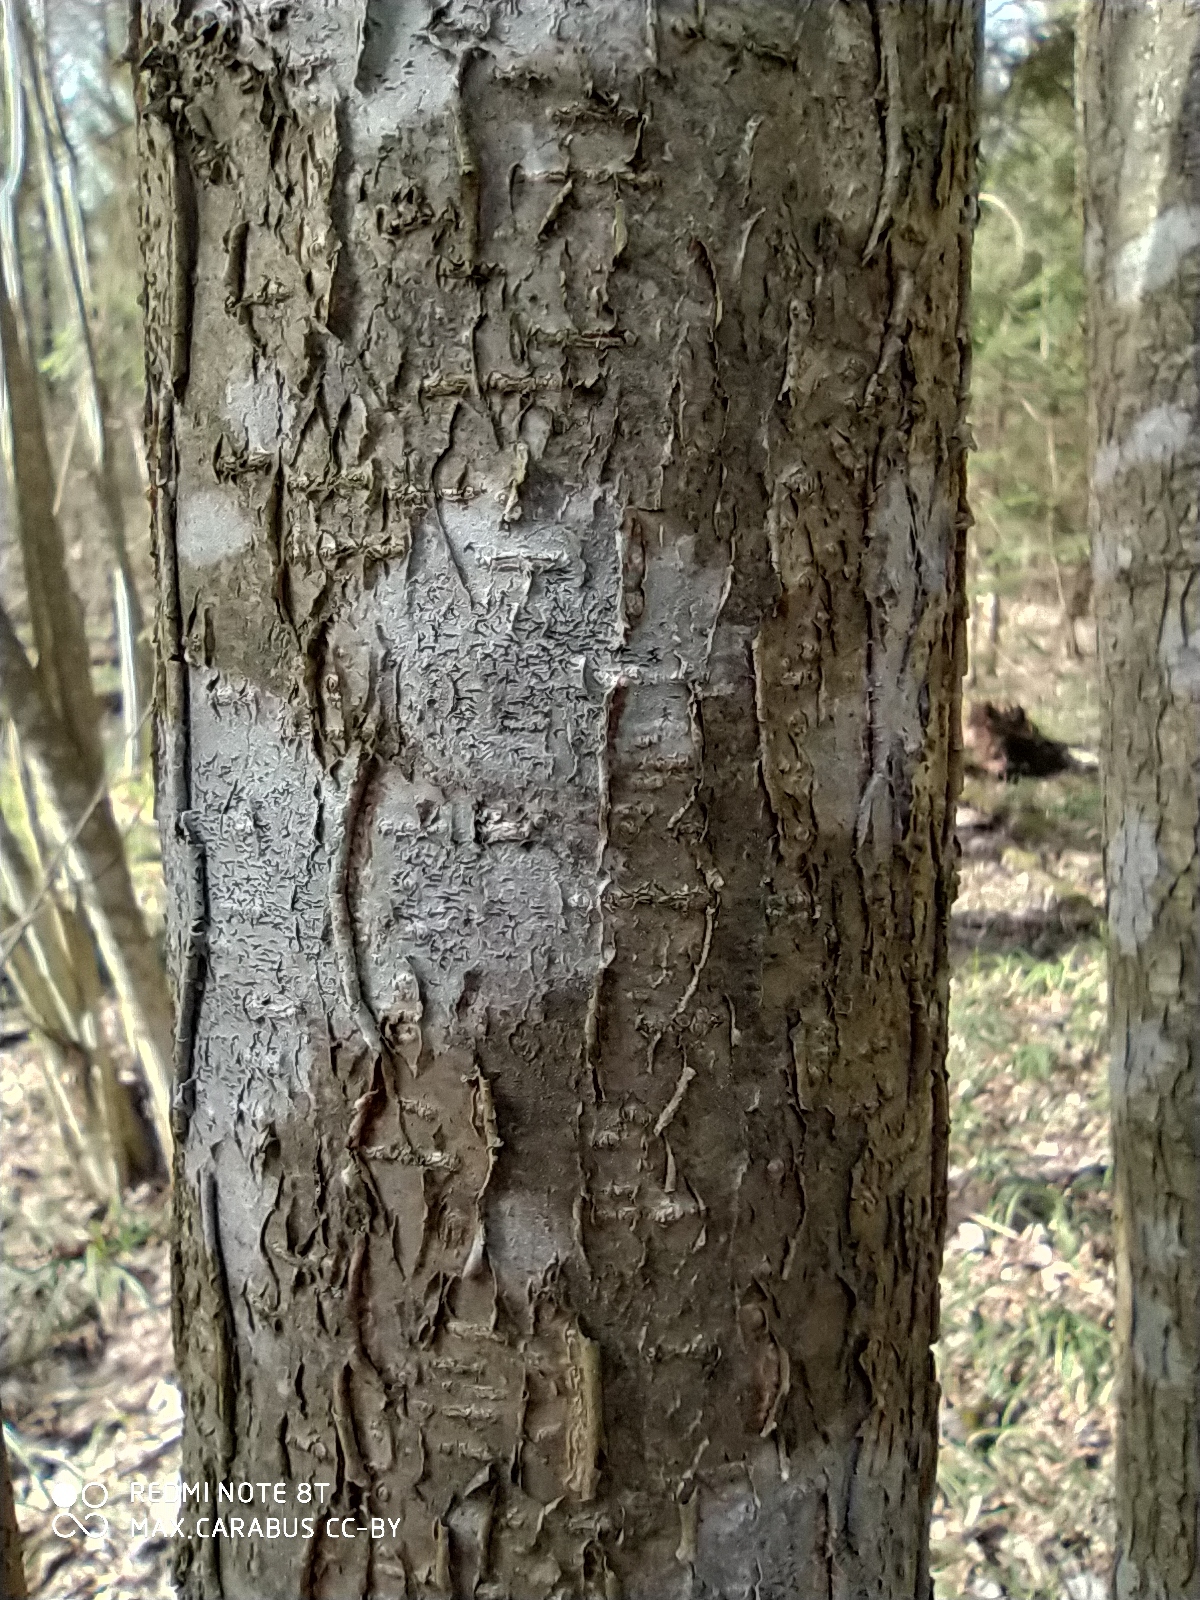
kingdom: Plantae
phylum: Tracheophyta
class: Magnoliopsida
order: Fagales
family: Betulaceae
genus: Corylus
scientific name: Corylus avellana
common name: European hazel
